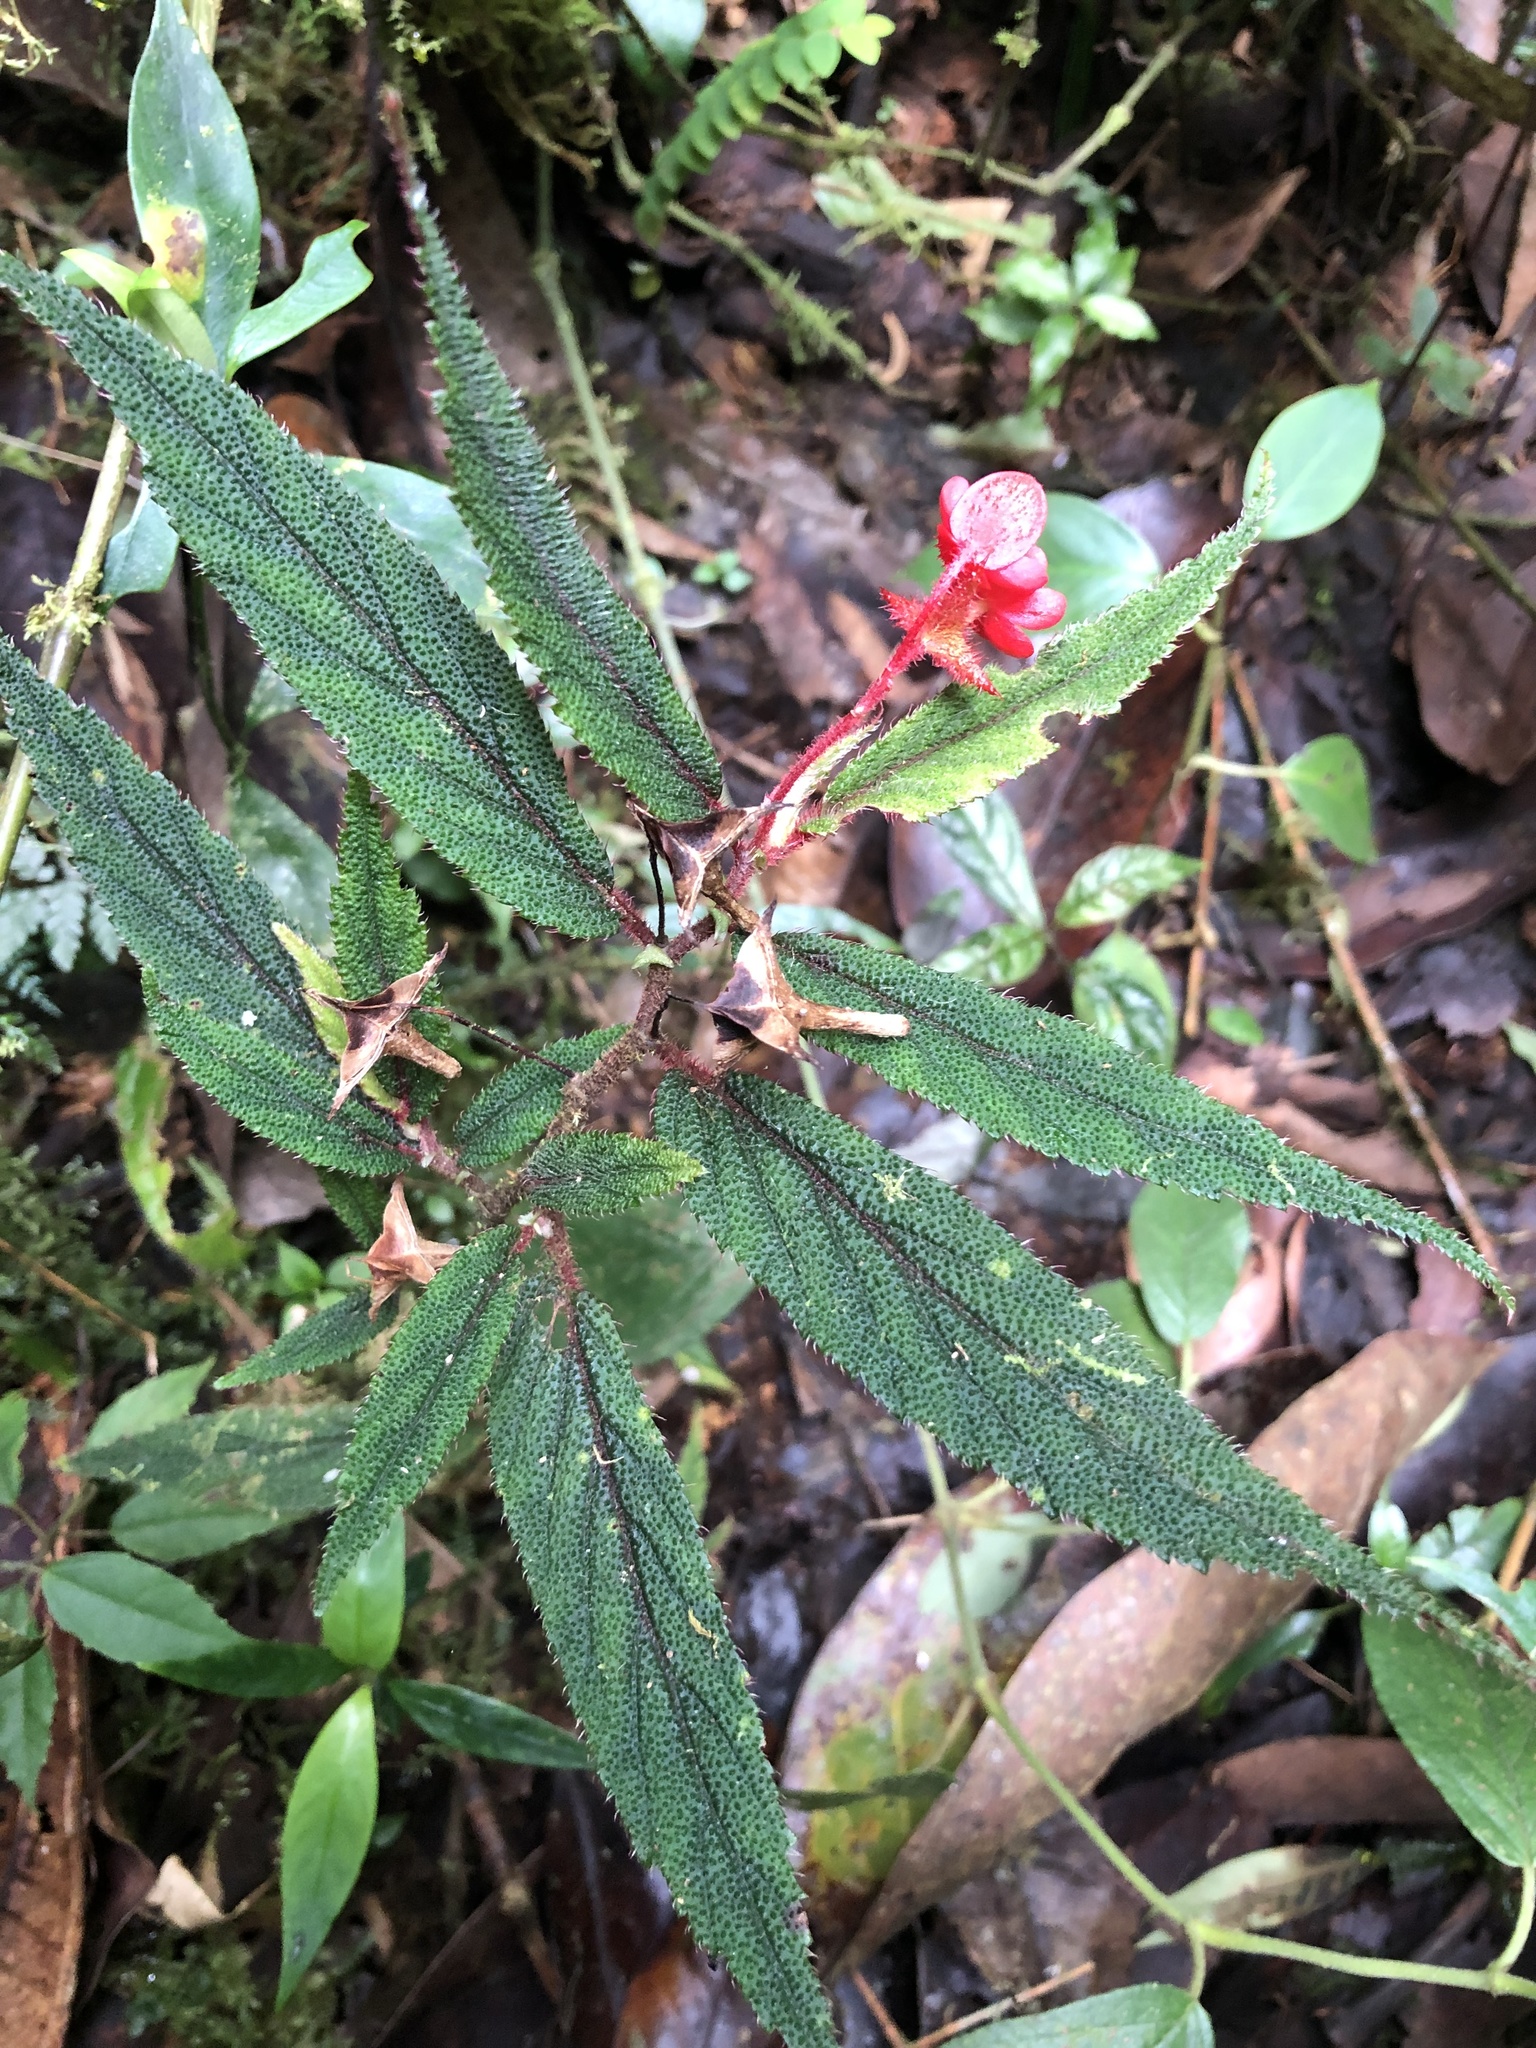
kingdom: Plantae
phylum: Tracheophyta
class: Magnoliopsida
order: Cucurbitales
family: Begoniaceae
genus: Begonia
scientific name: Begonia urticae
